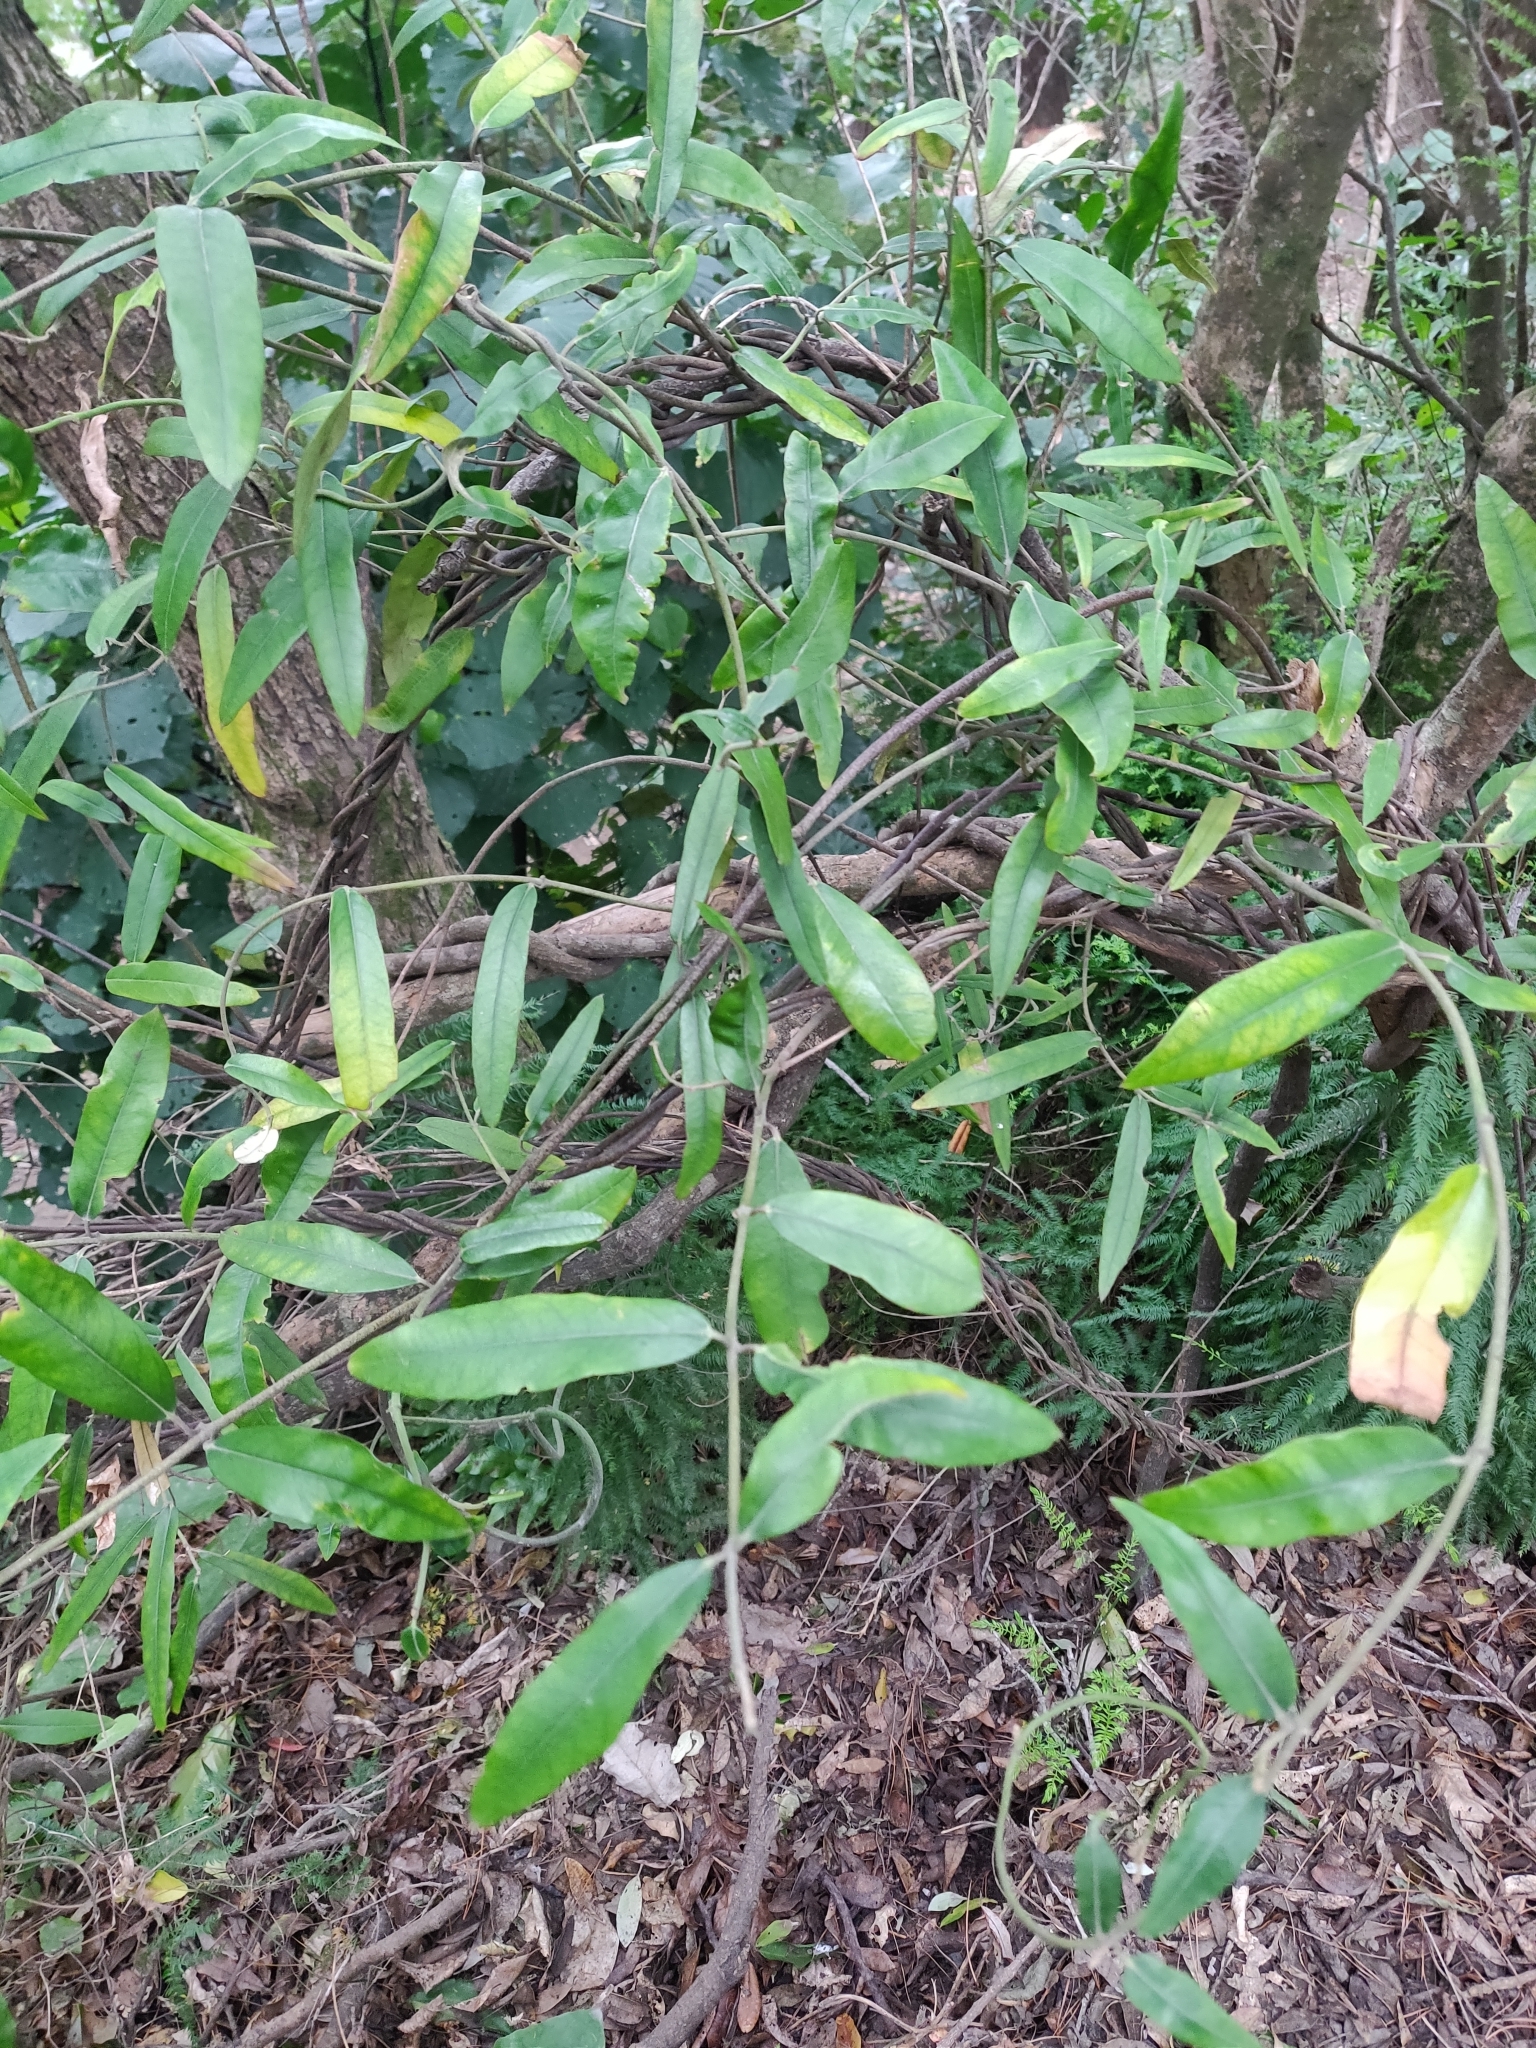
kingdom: Plantae
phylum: Tracheophyta
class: Magnoliopsida
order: Gentianales
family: Apocynaceae
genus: Parsonsia
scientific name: Parsonsia heterophylla
